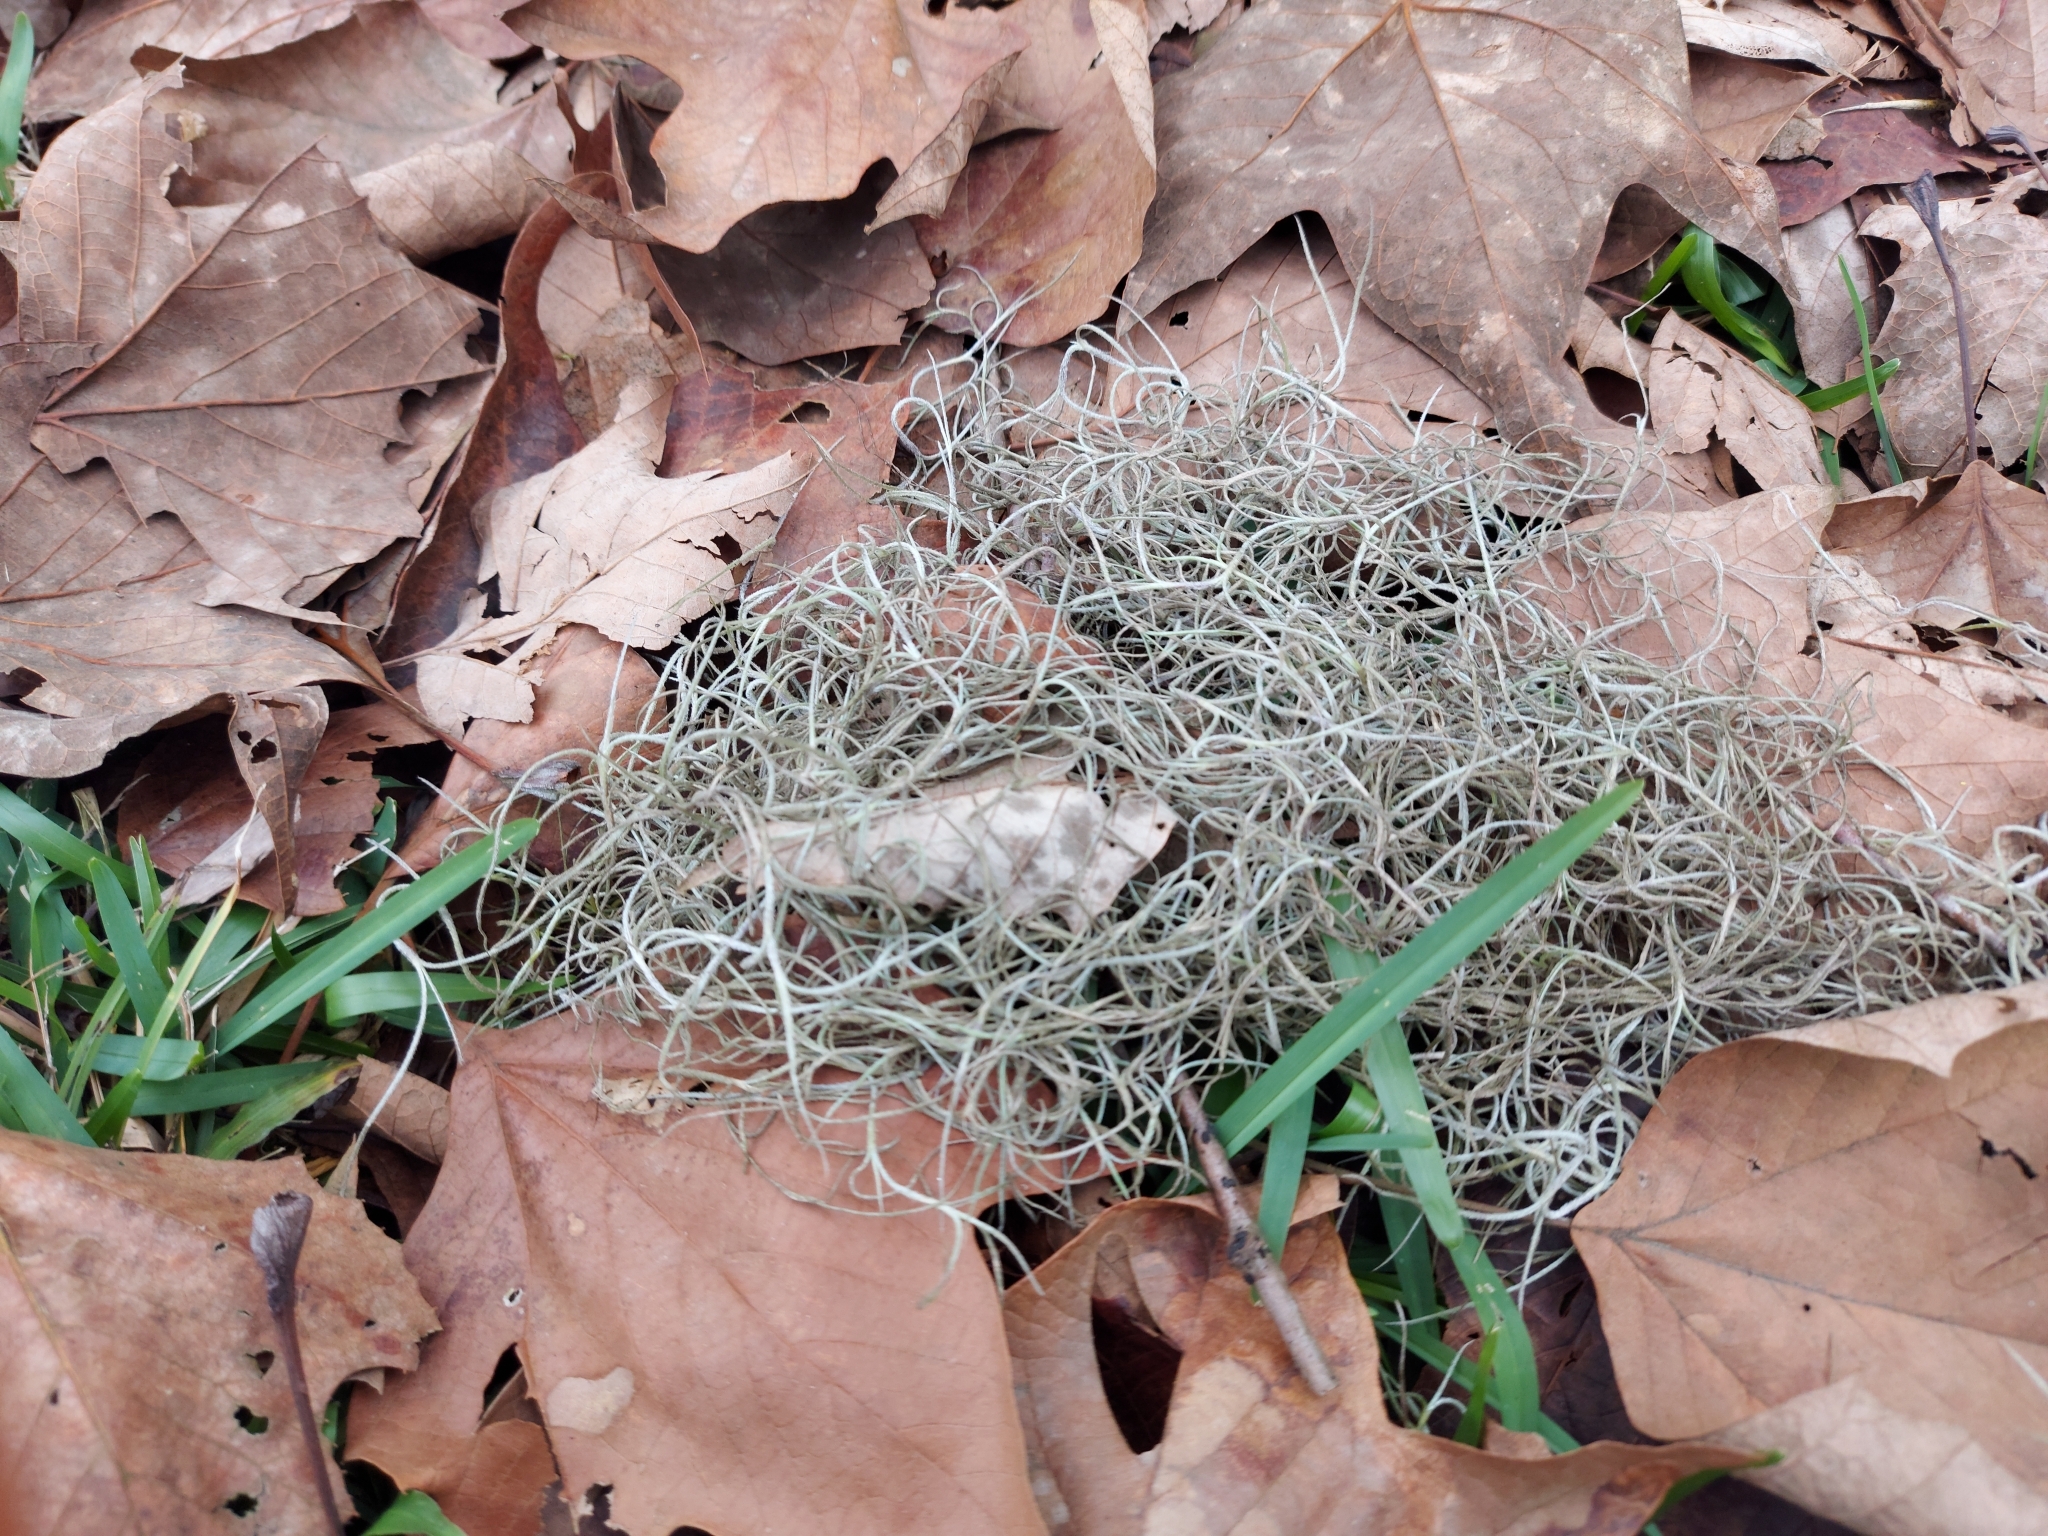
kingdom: Plantae
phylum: Tracheophyta
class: Liliopsida
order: Poales
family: Bromeliaceae
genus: Tillandsia
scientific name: Tillandsia usneoides
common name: Spanish moss
